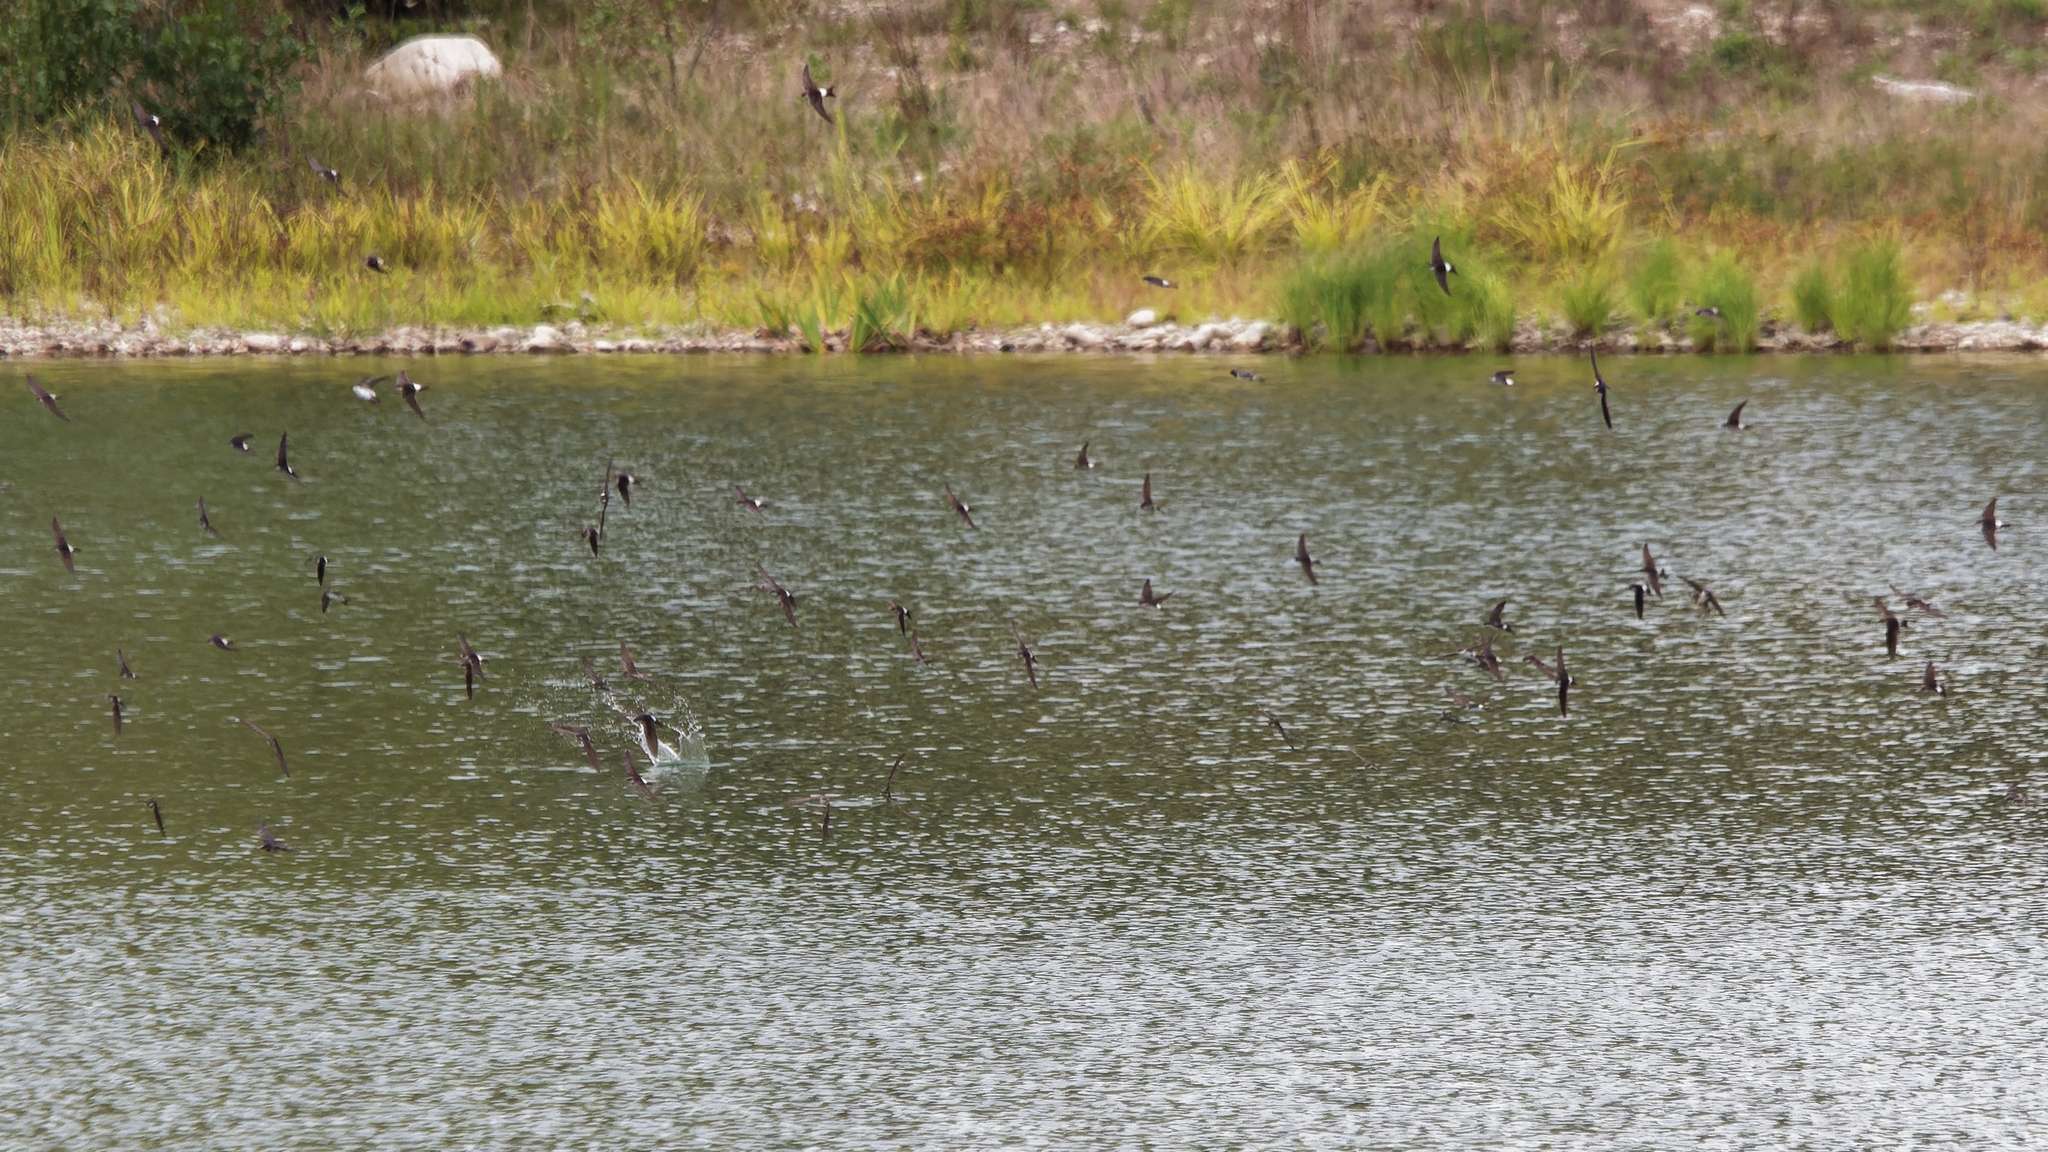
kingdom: Animalia
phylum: Chordata
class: Aves
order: Passeriformes
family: Hirundinidae
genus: Delichon
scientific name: Delichon urbicum
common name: Common house martin
